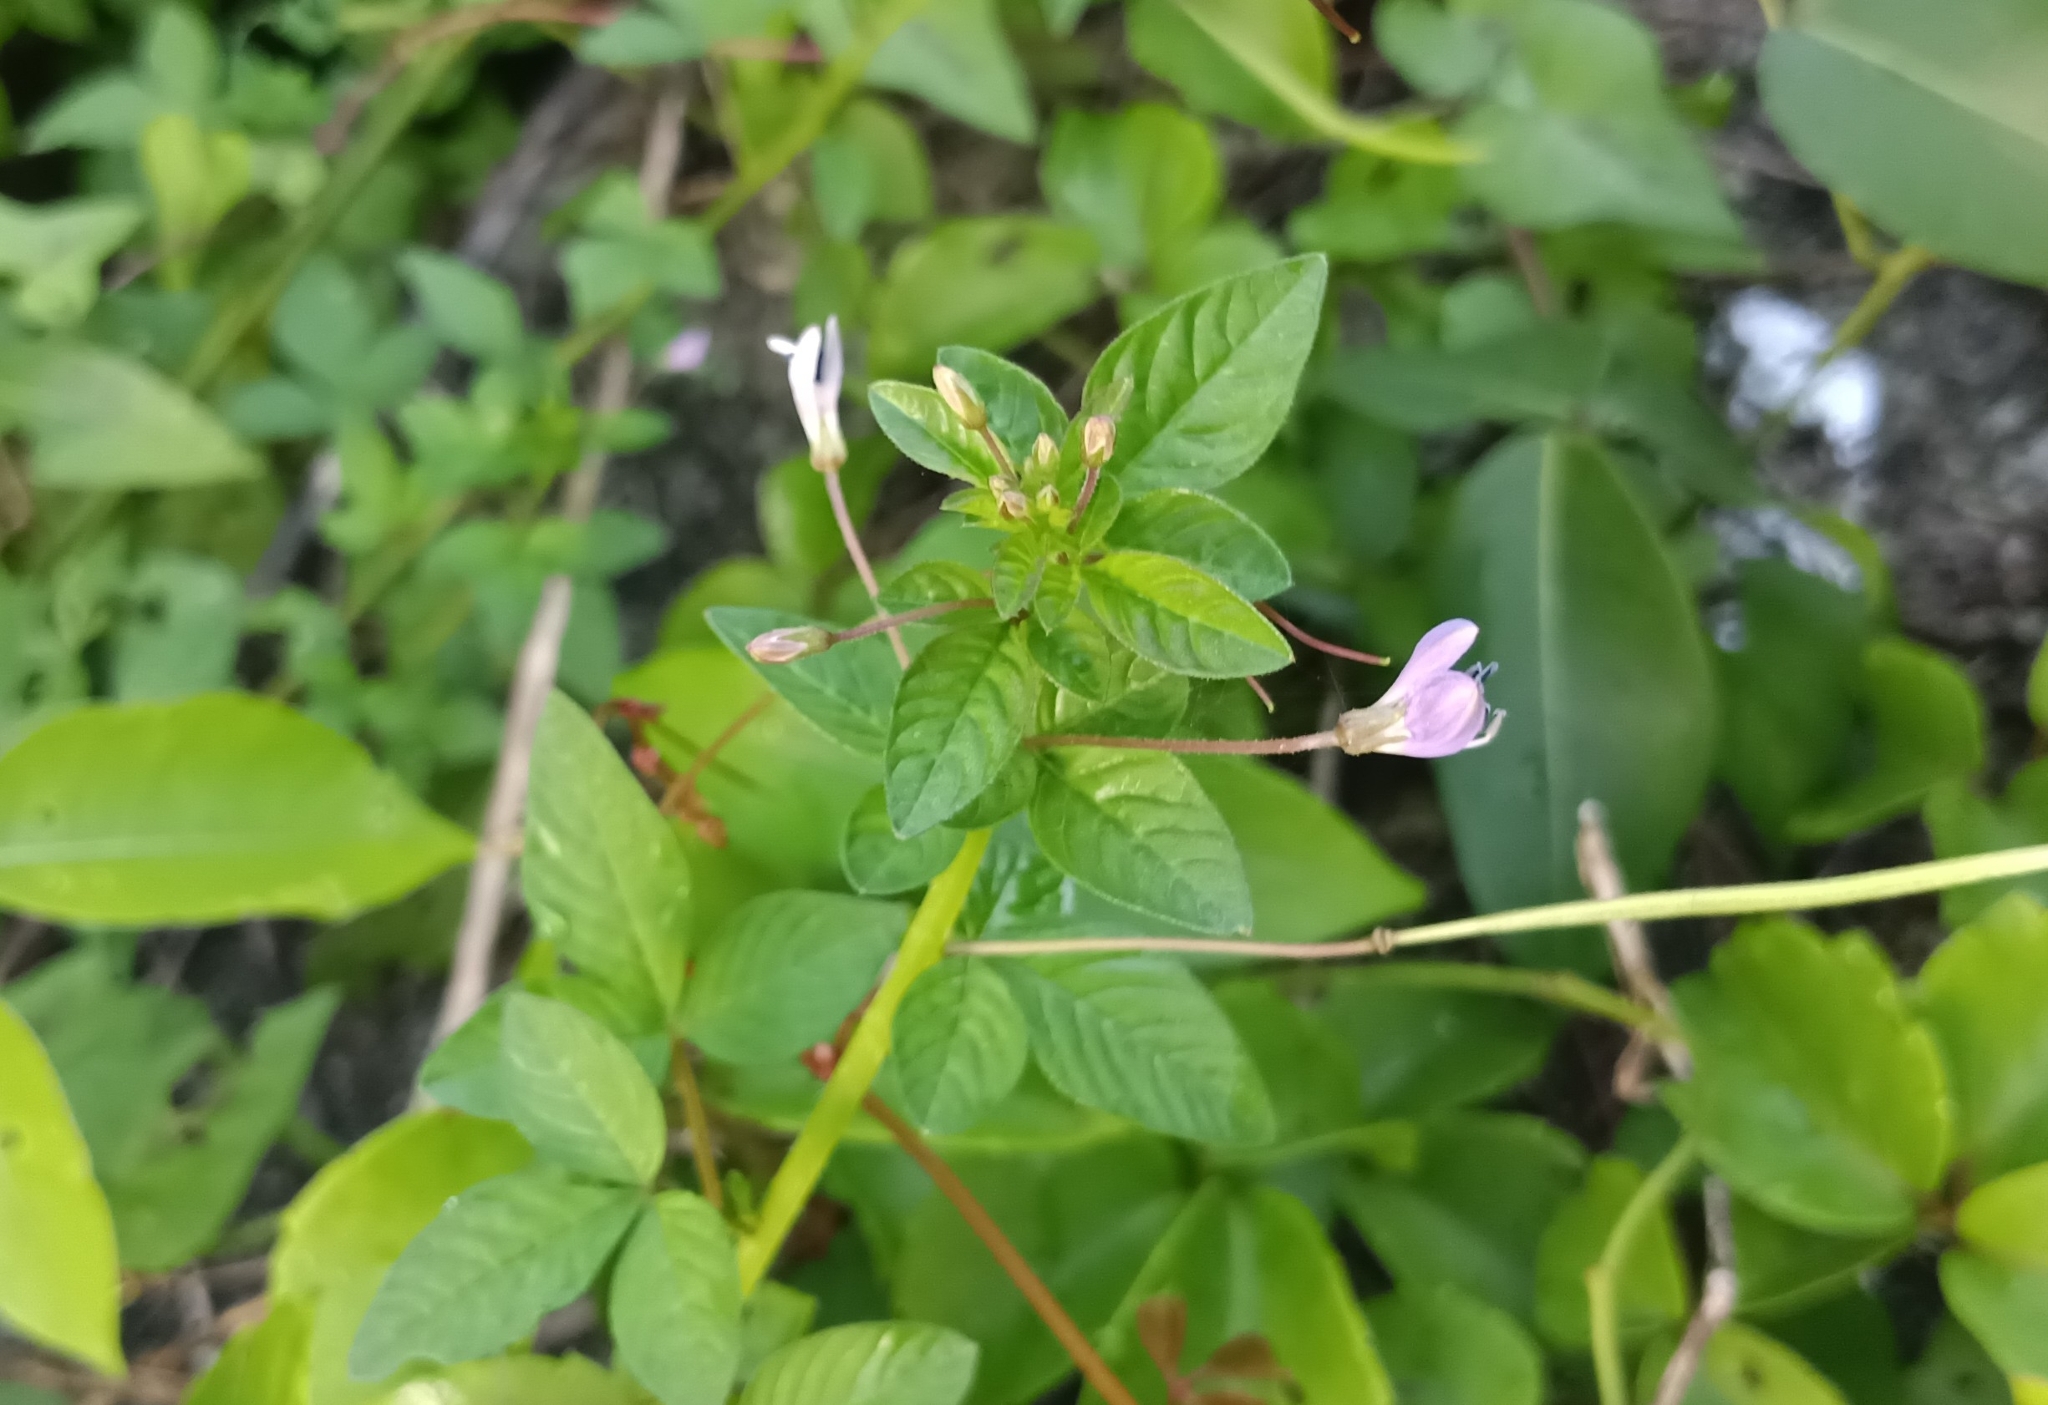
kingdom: Plantae
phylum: Tracheophyta
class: Magnoliopsida
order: Brassicales
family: Cleomaceae
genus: Sieruela
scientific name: Sieruela rutidosperma
